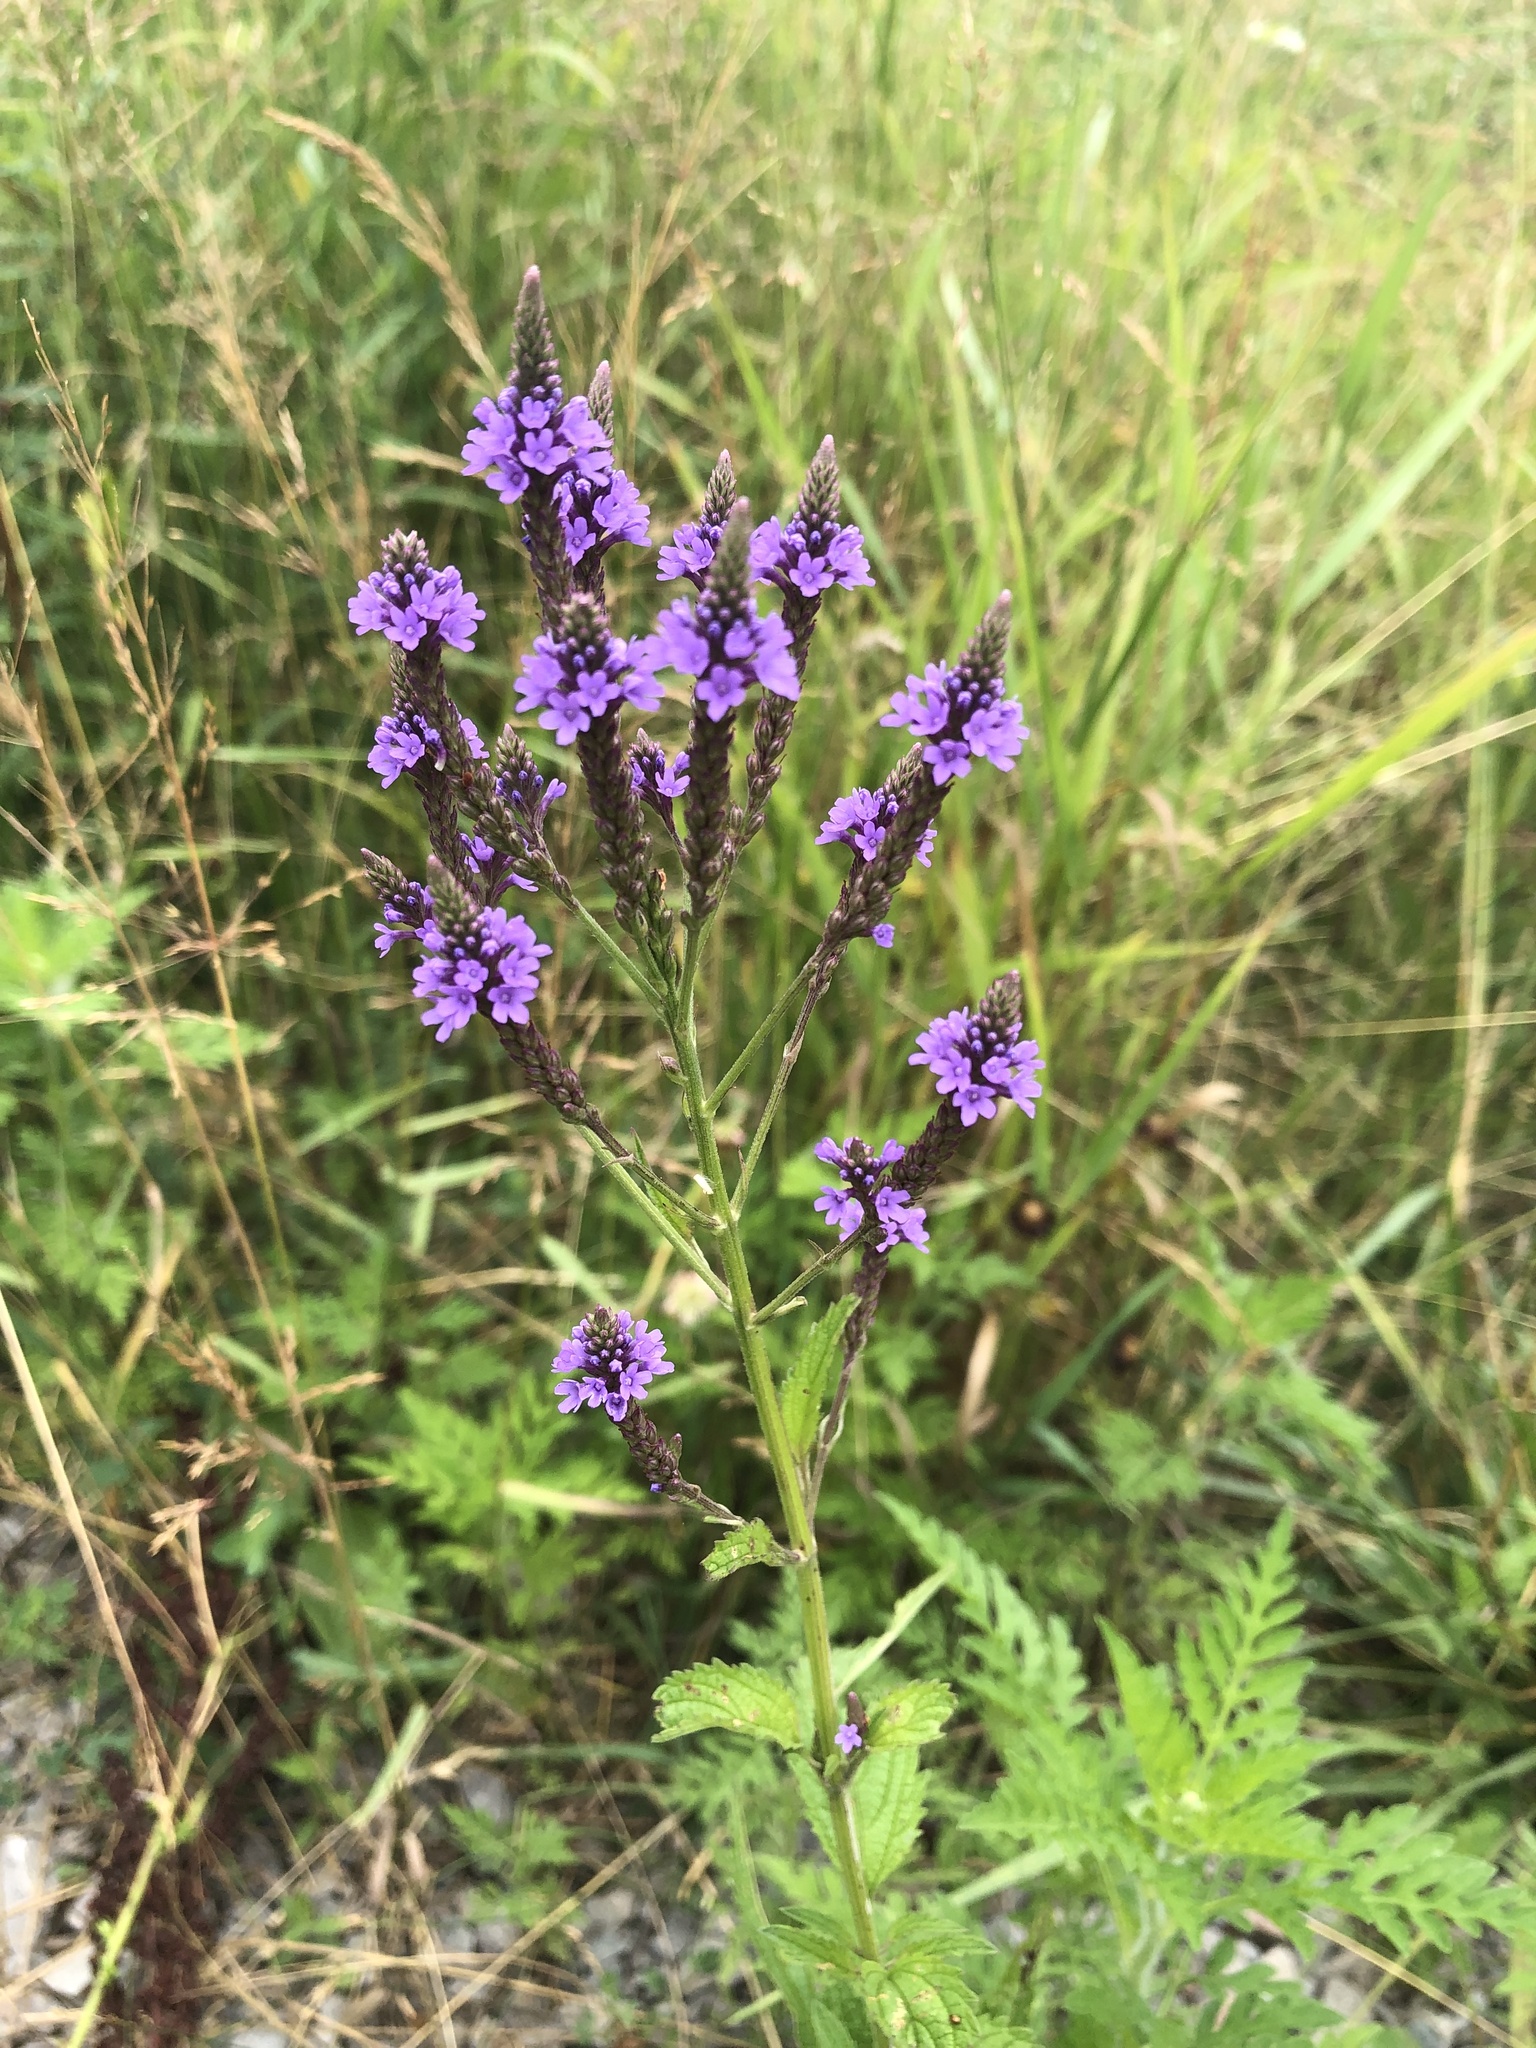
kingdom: Plantae
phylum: Tracheophyta
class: Magnoliopsida
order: Lamiales
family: Verbenaceae
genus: Verbena
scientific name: Verbena hastata
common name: American blue vervain
